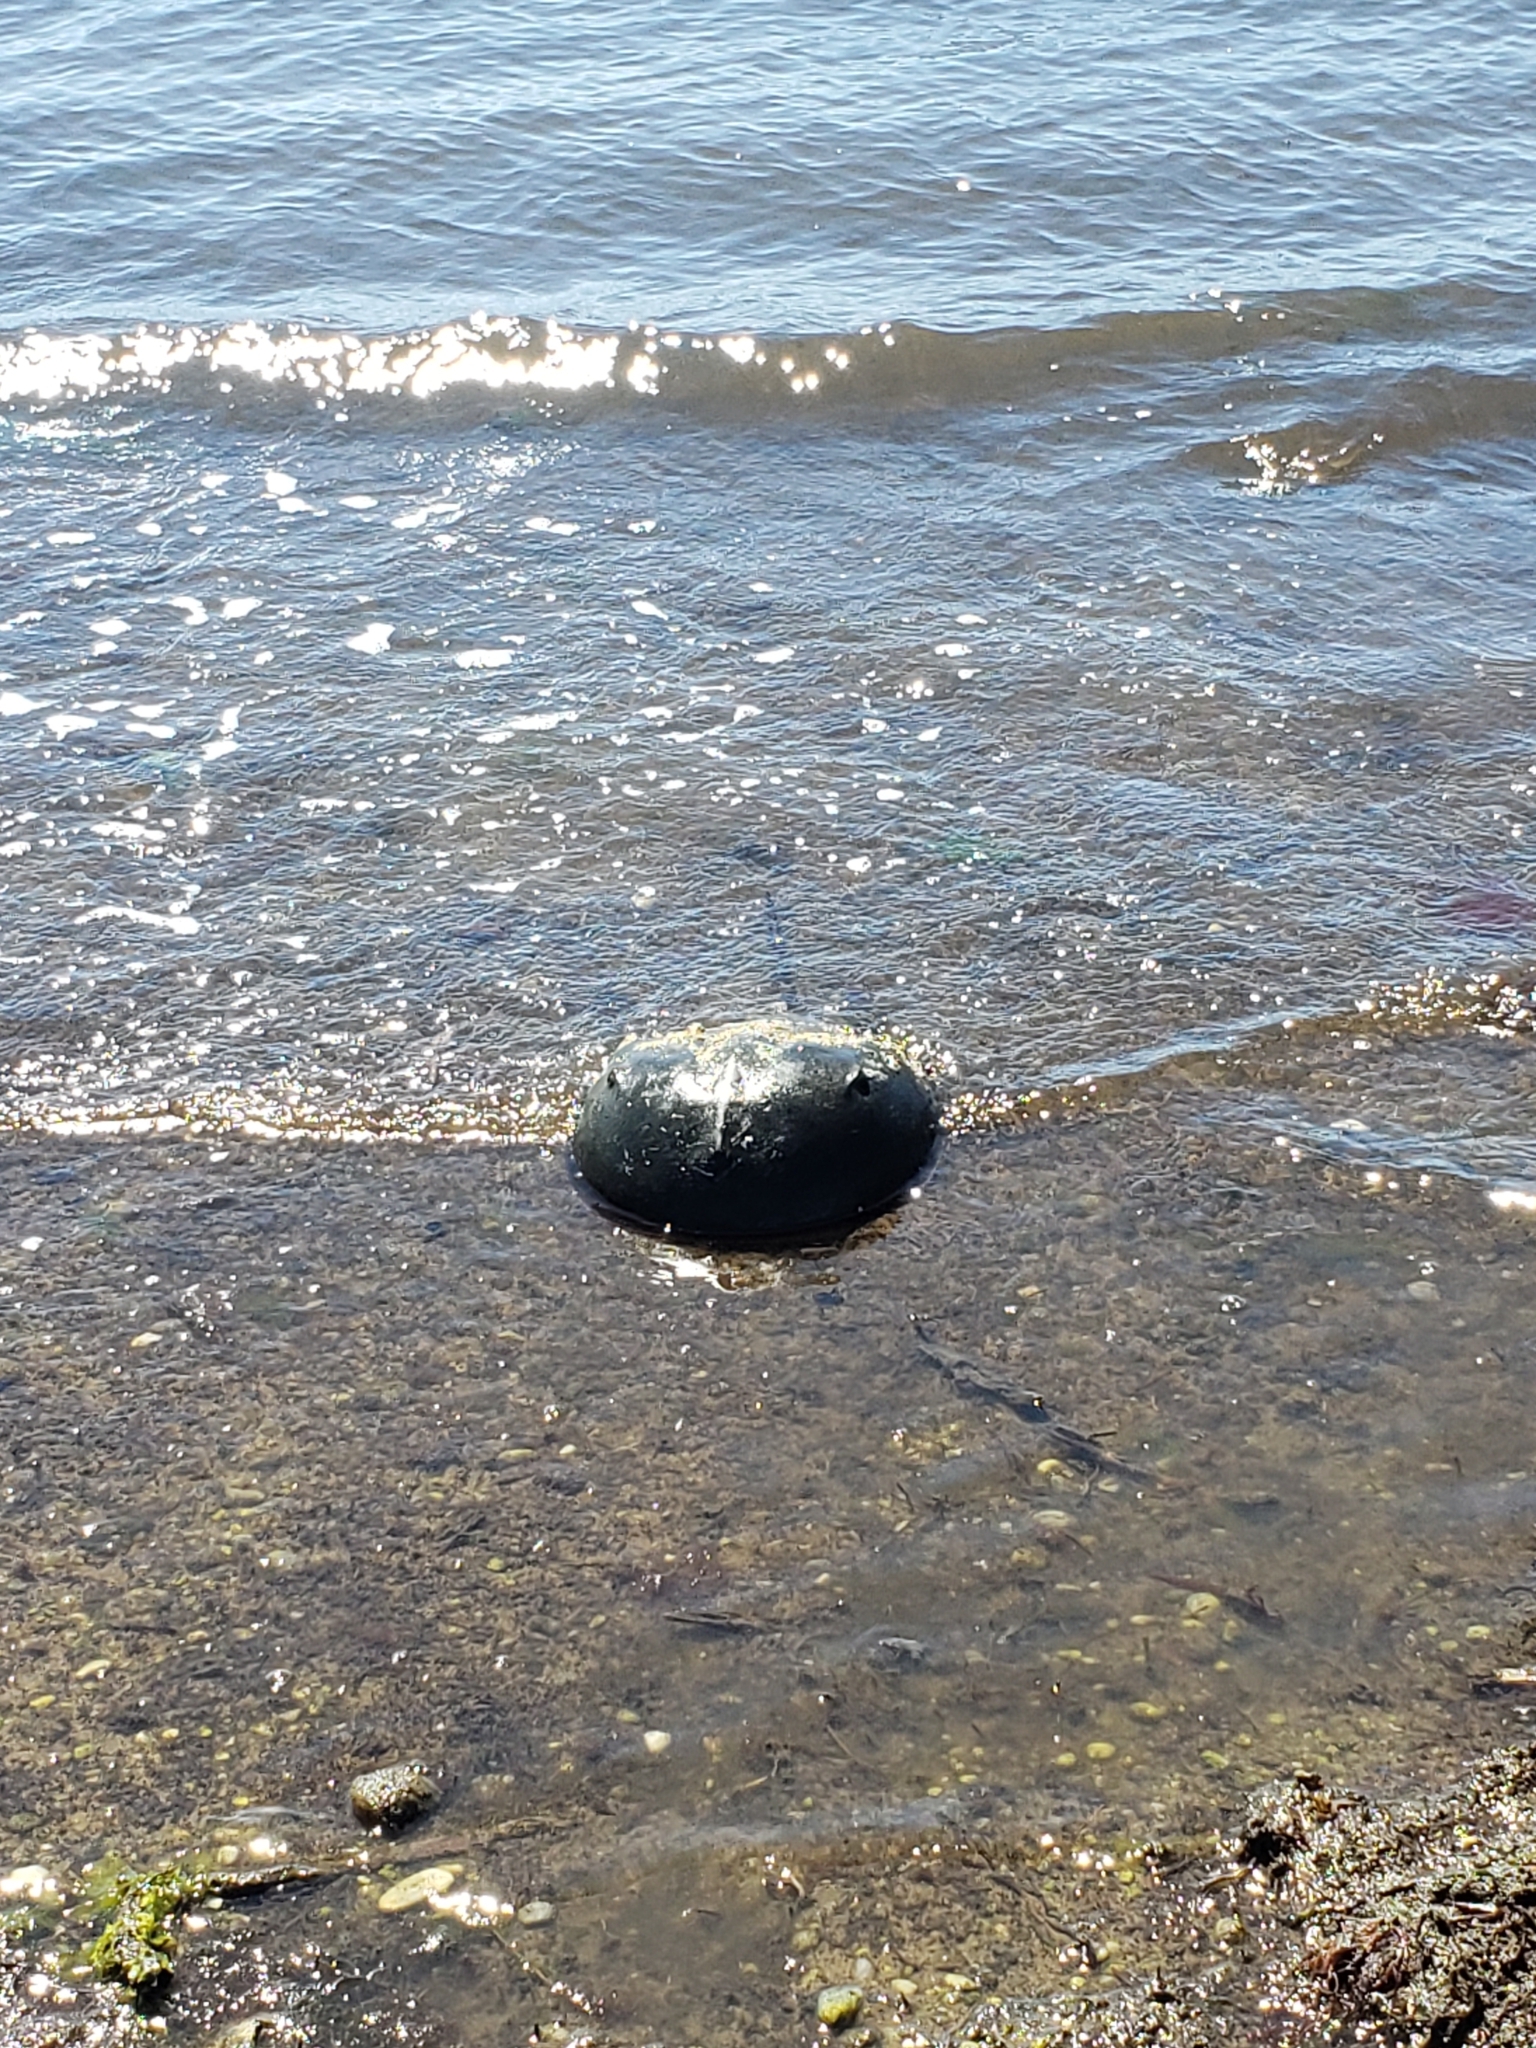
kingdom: Animalia
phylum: Arthropoda
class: Merostomata
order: Xiphosurida
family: Limulidae
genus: Limulus
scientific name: Limulus polyphemus
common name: Horseshoe crab
